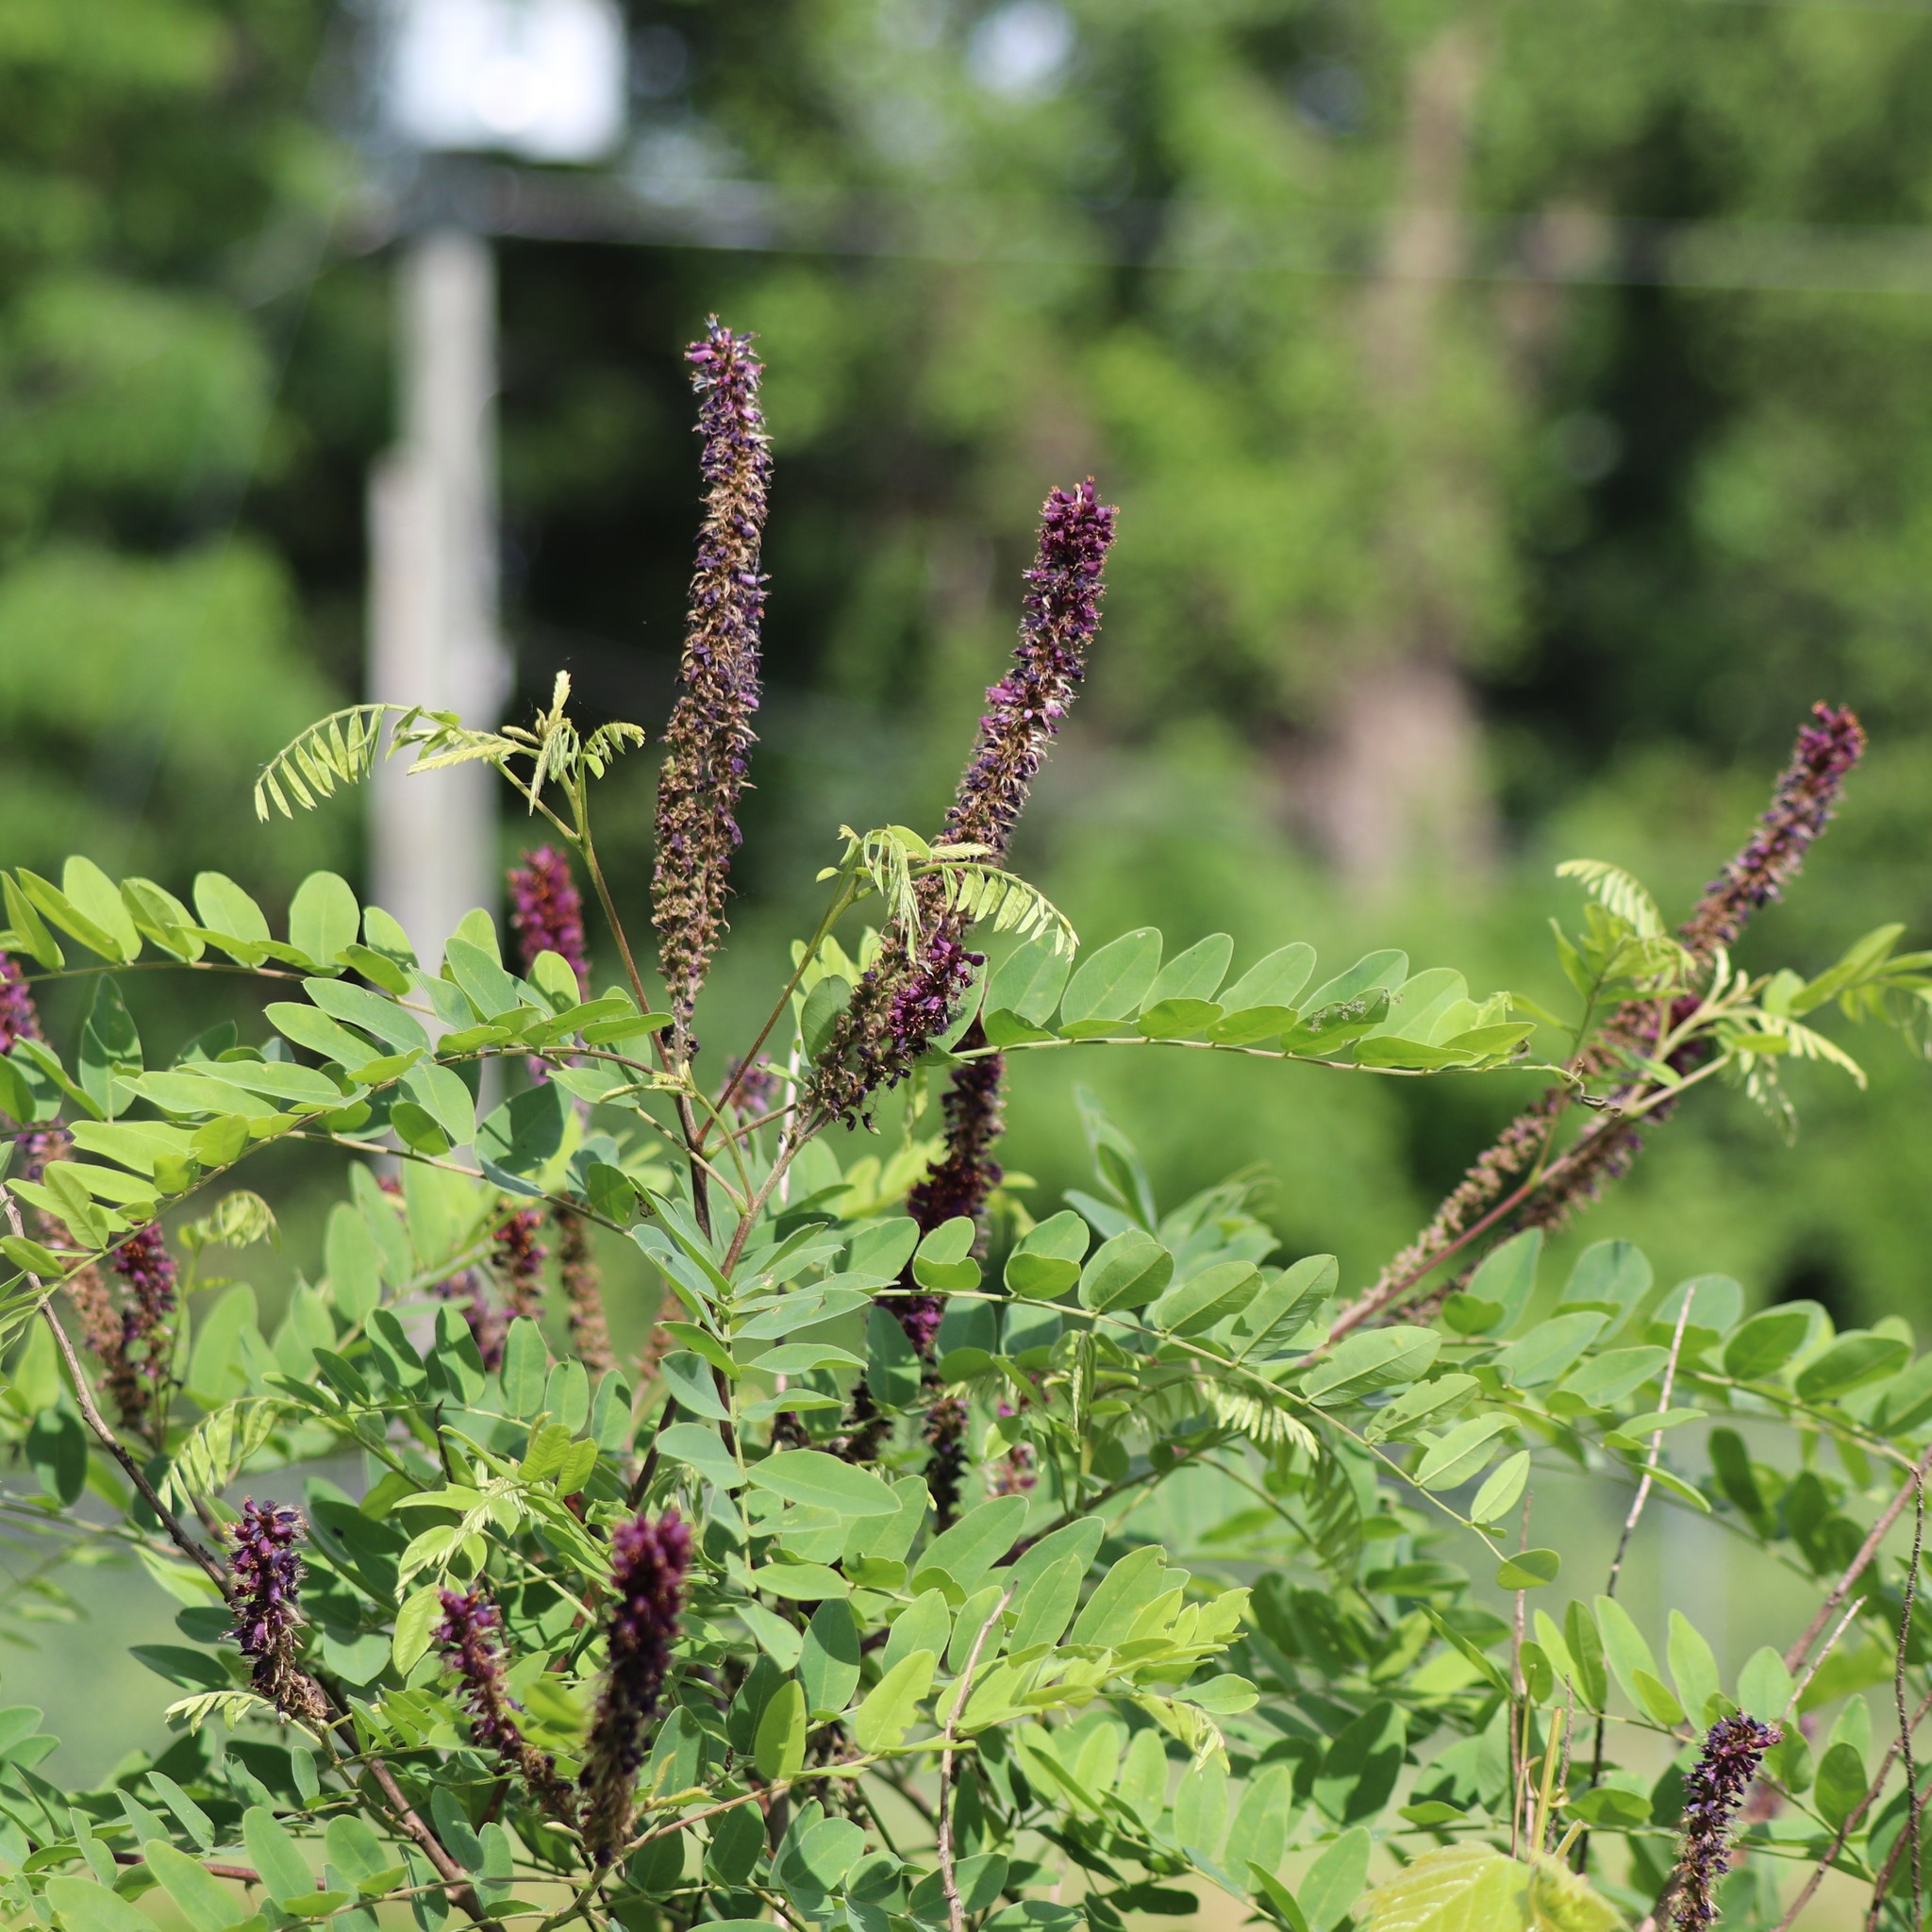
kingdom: Plantae
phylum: Tracheophyta
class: Magnoliopsida
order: Fabales
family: Fabaceae
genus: Amorpha
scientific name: Amorpha fruticosa
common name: False indigo
